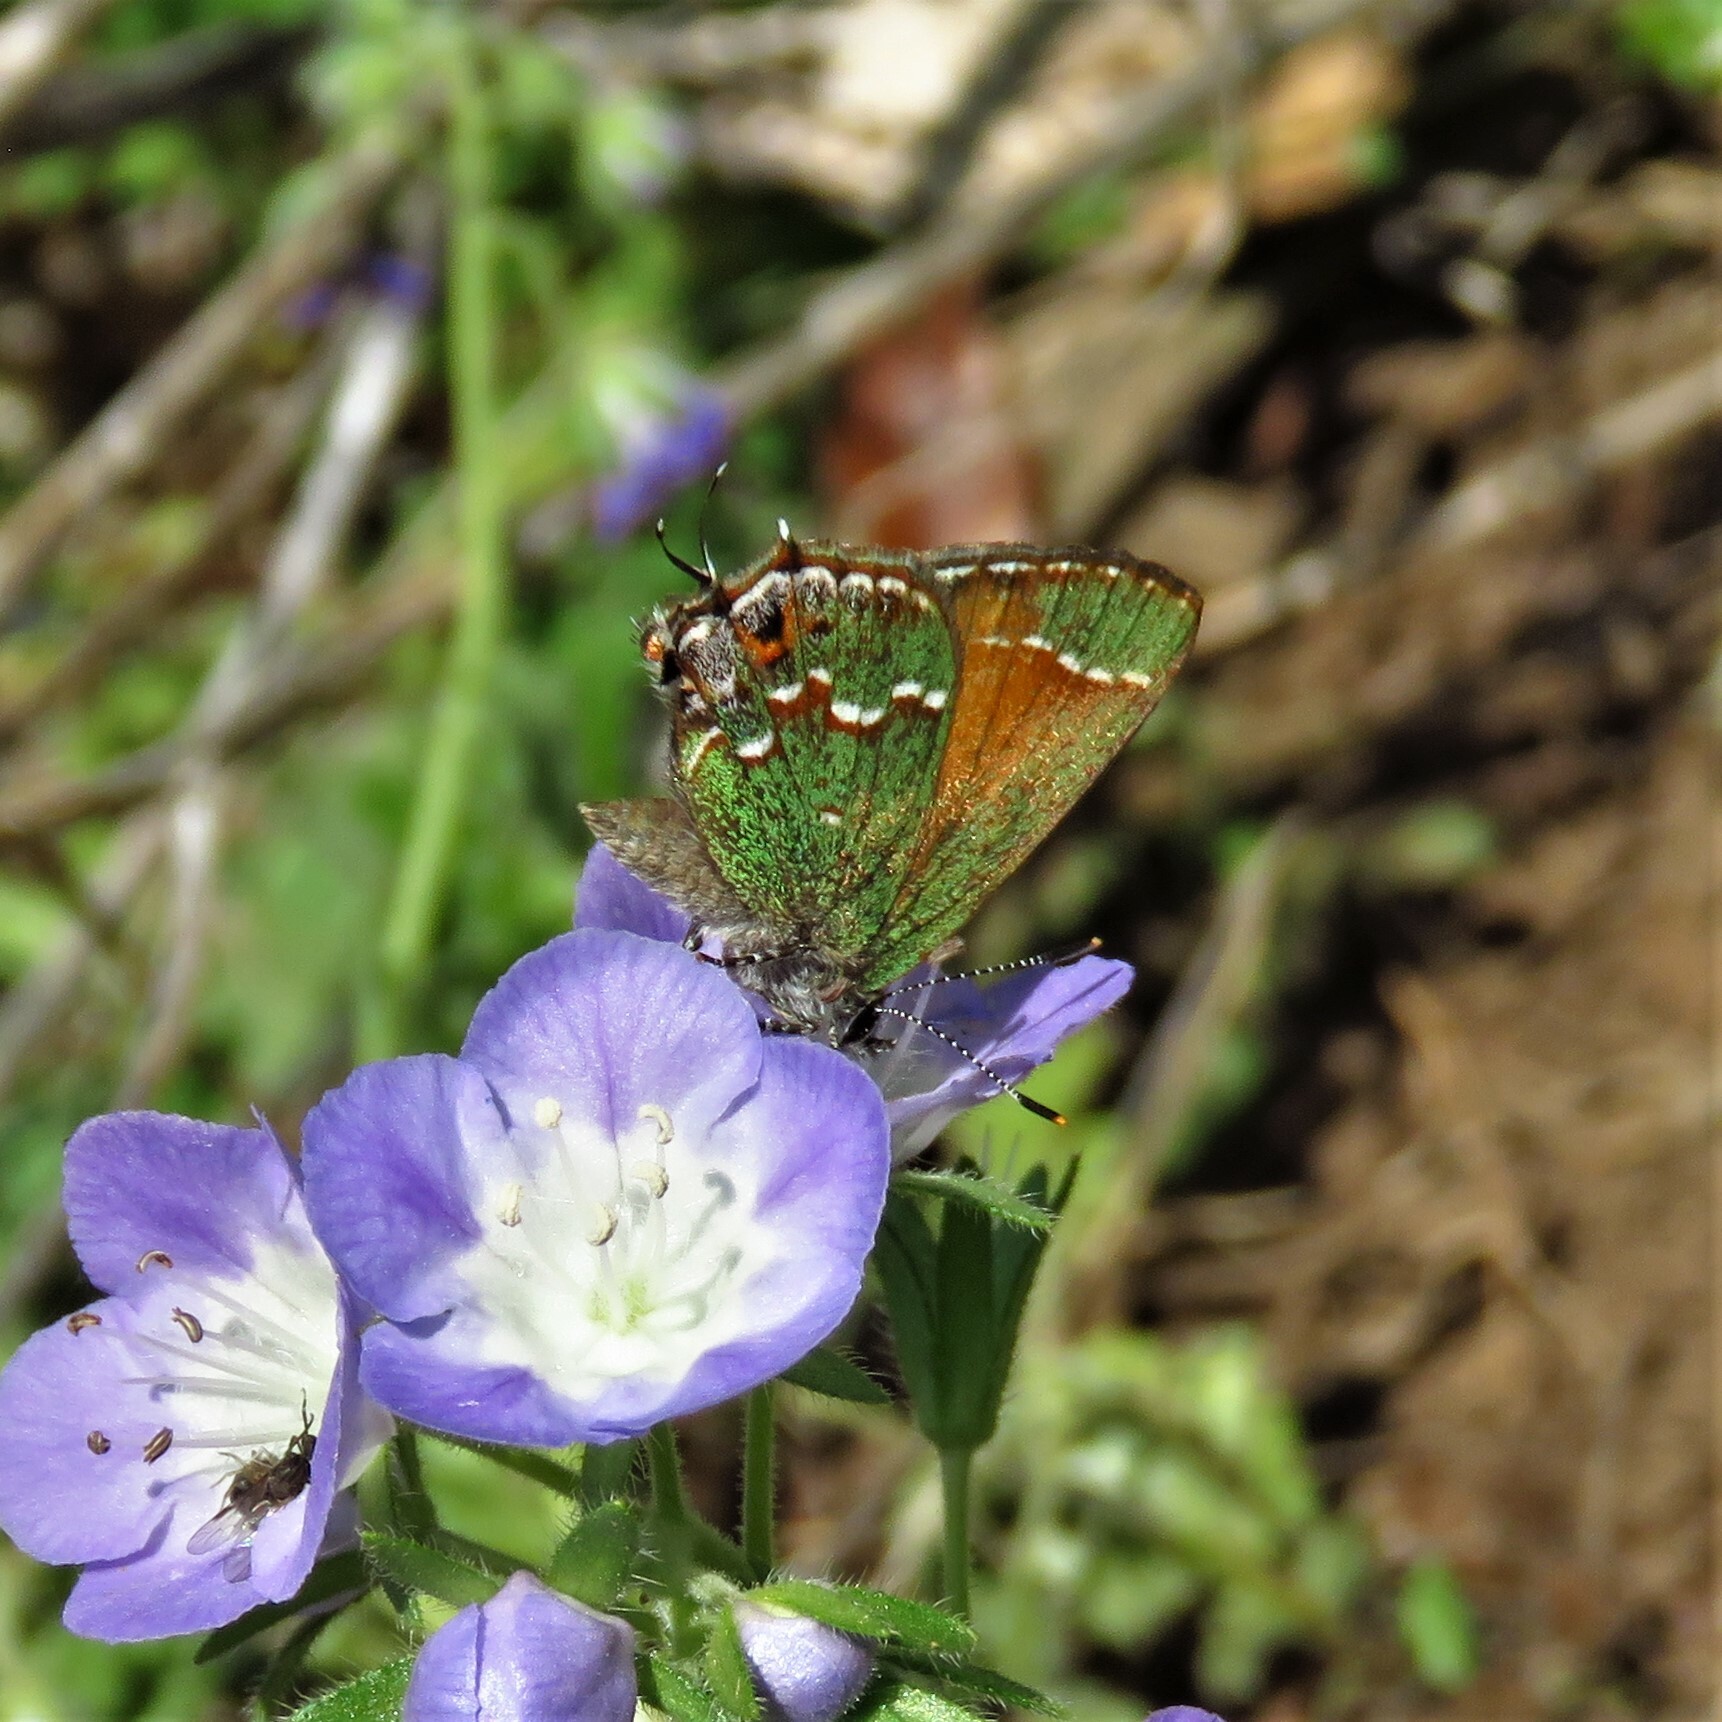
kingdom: Animalia
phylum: Arthropoda
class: Insecta
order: Lepidoptera
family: Lycaenidae
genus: Mitoura
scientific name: Mitoura gryneus
